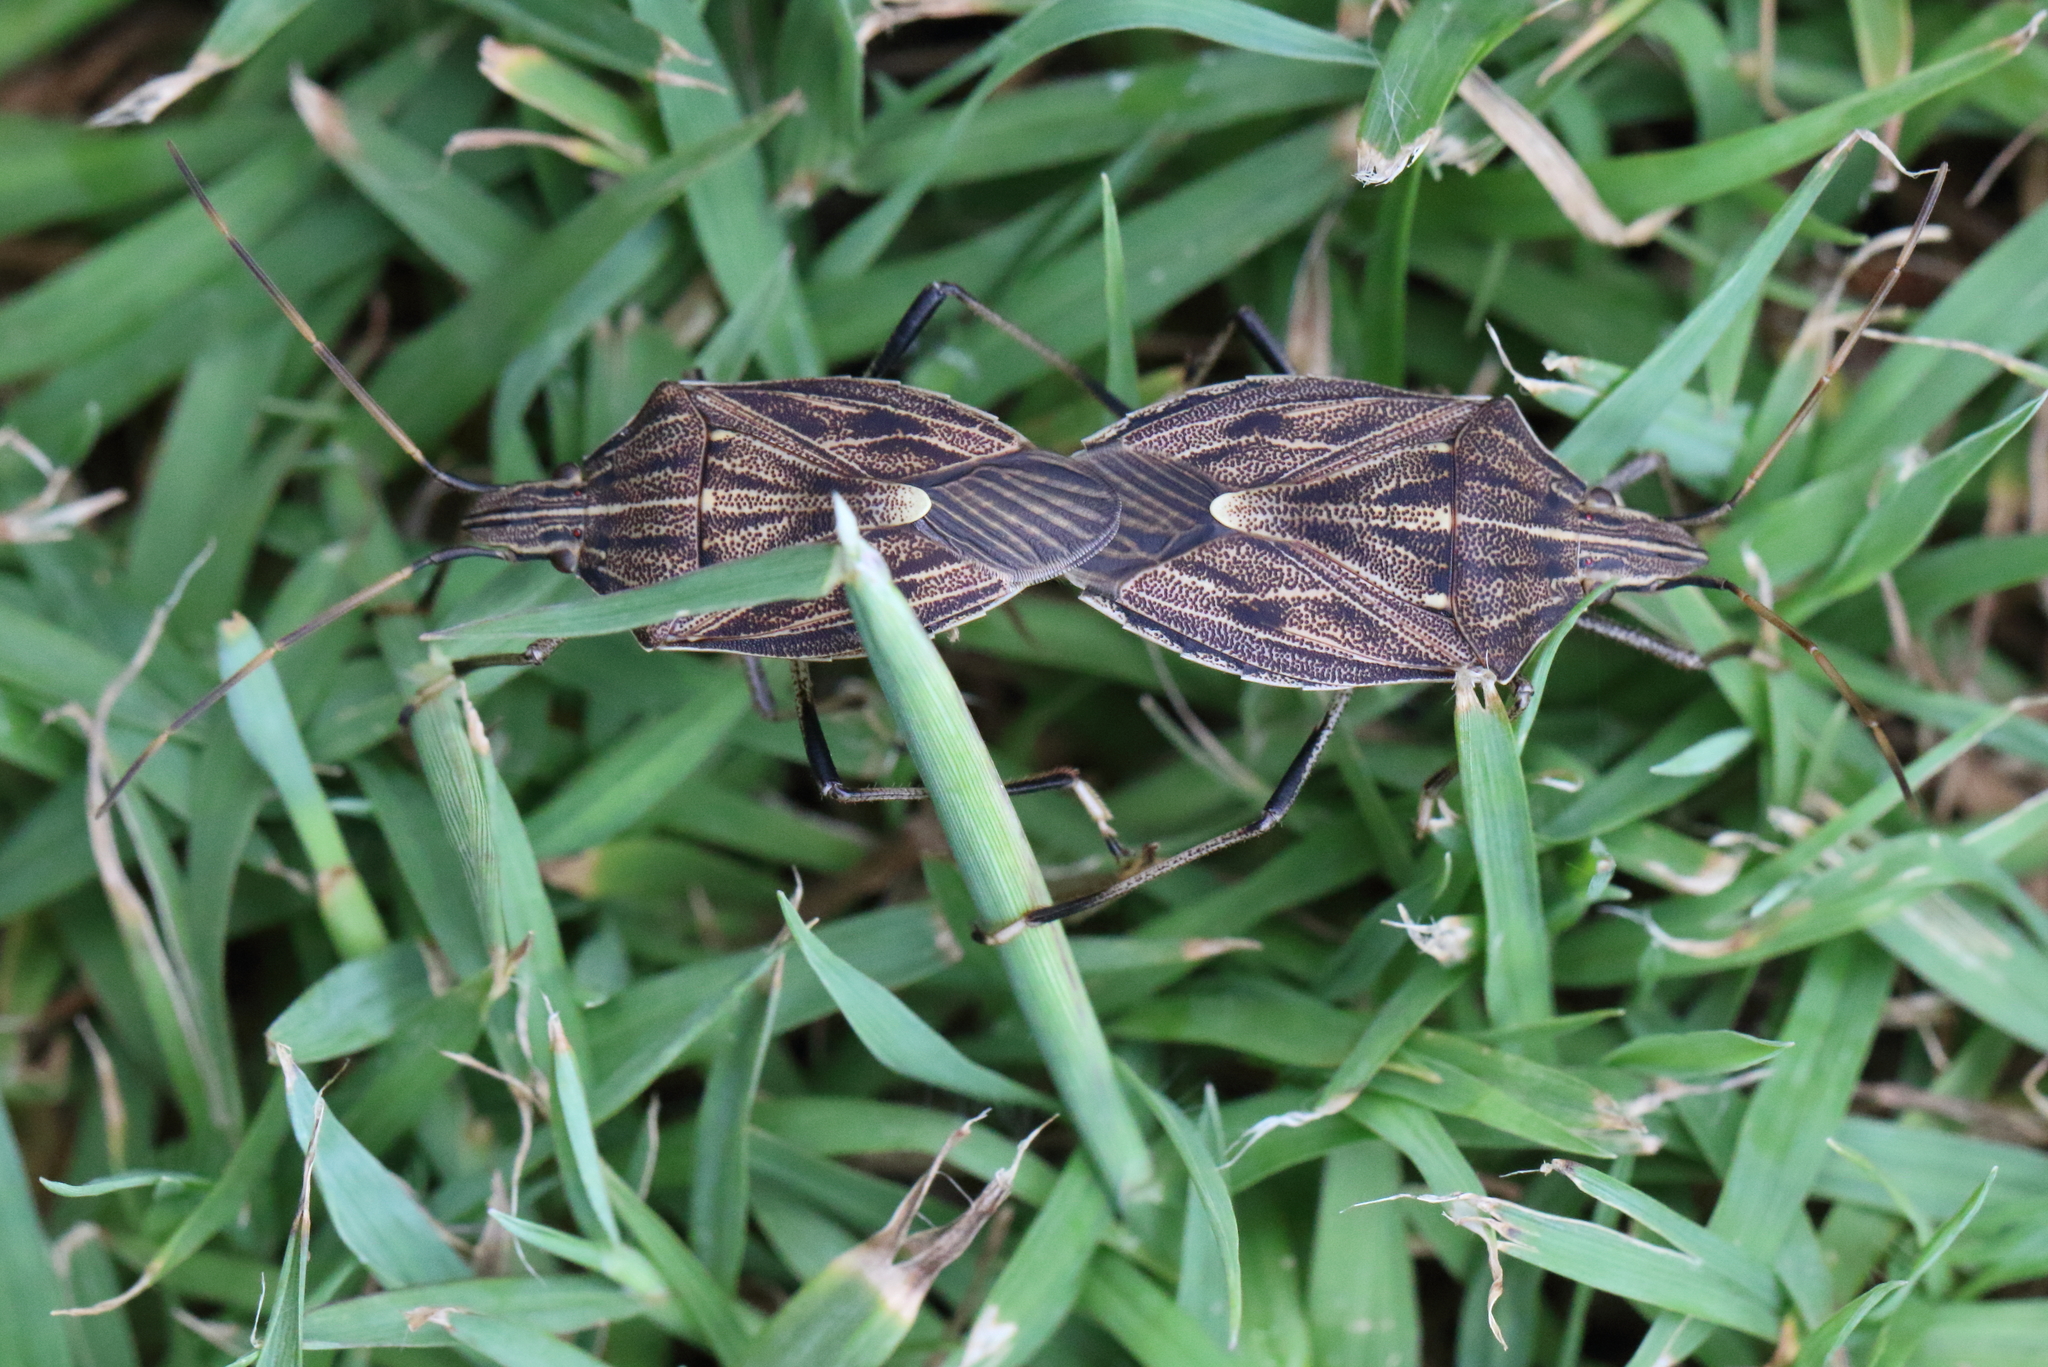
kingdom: Animalia
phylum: Arthropoda
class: Insecta
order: Hemiptera
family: Pentatomidae
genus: Poecilometis
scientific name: Poecilometis
